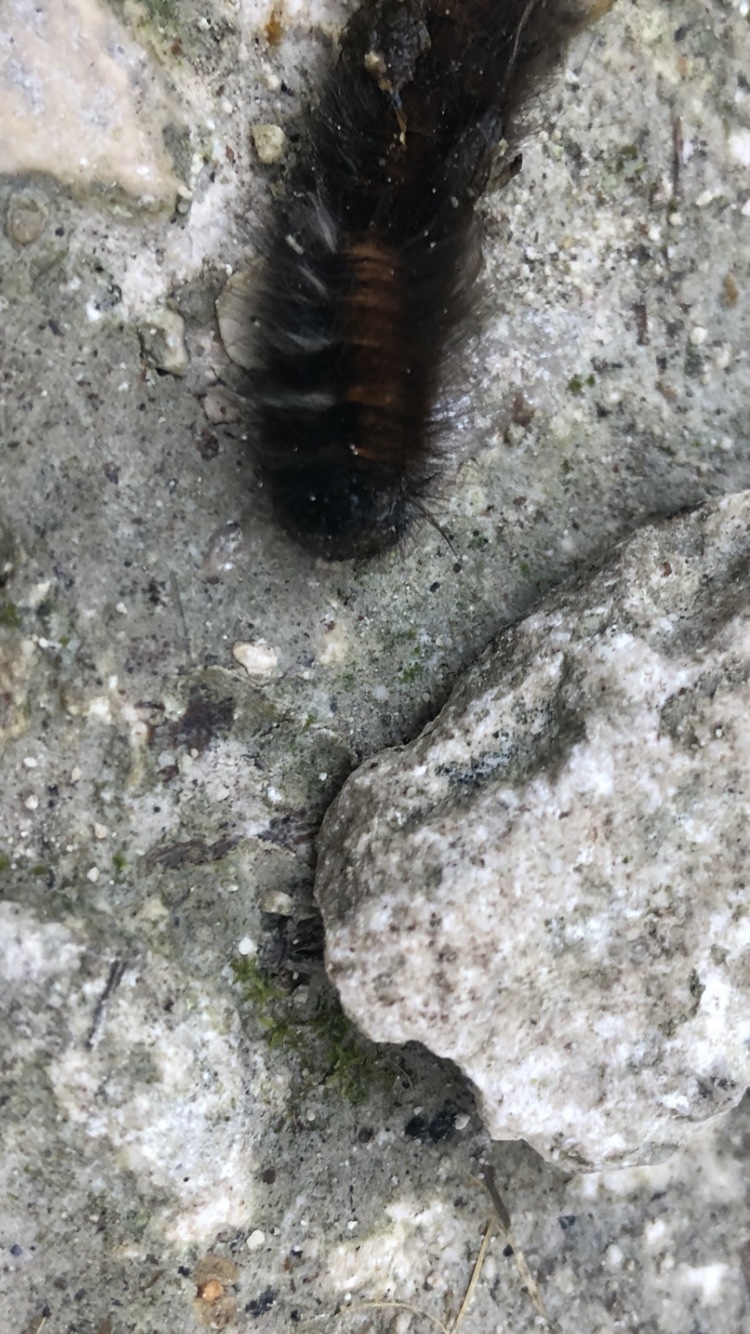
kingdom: Animalia
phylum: Arthropoda
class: Insecta
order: Lepidoptera
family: Lasiocampidae
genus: Macrothylacia
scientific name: Macrothylacia rubi
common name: Fox moth
